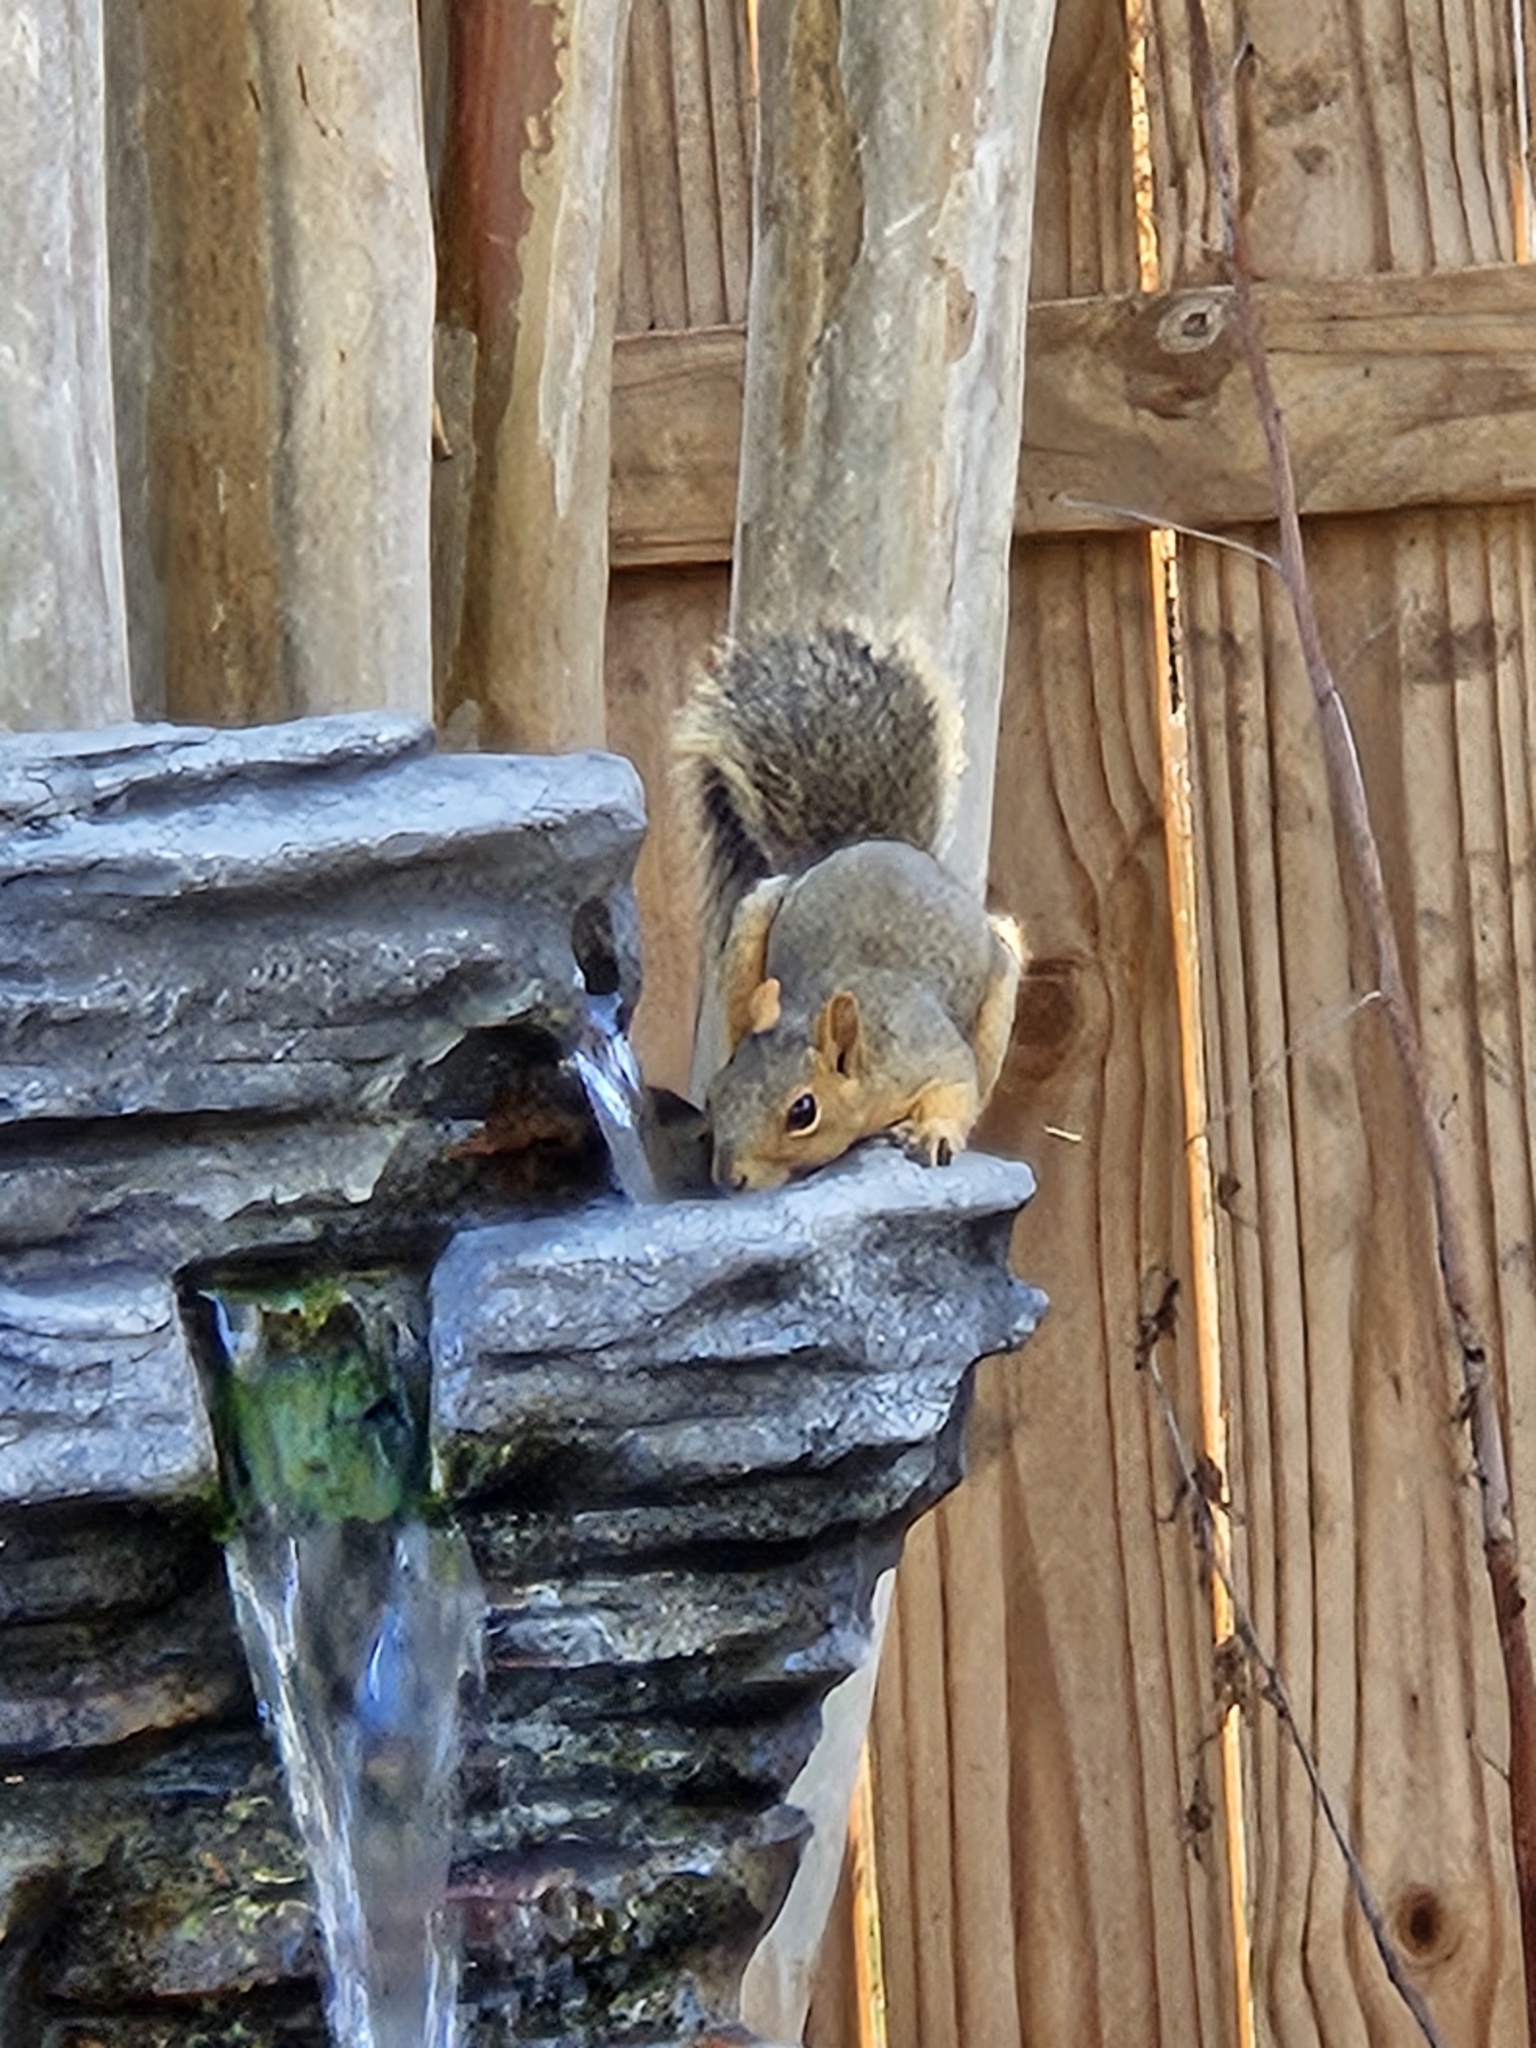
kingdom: Animalia
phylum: Chordata
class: Mammalia
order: Rodentia
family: Sciuridae
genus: Sciurus
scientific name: Sciurus niger
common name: Fox squirrel
